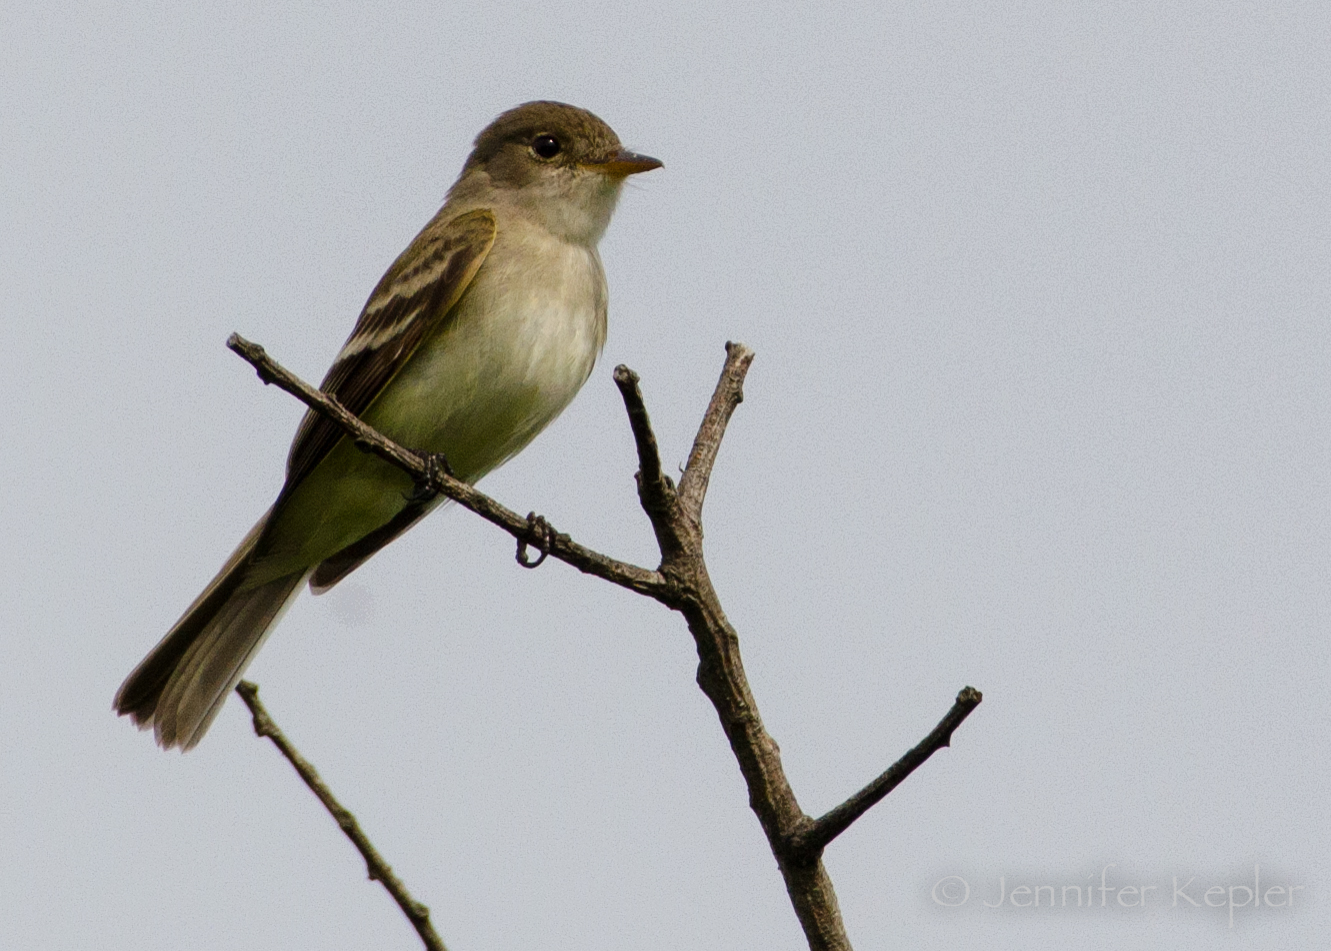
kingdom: Animalia
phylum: Chordata
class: Aves
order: Passeriformes
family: Tyrannidae
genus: Empidonax
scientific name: Empidonax traillii
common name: Willow flycatcher
